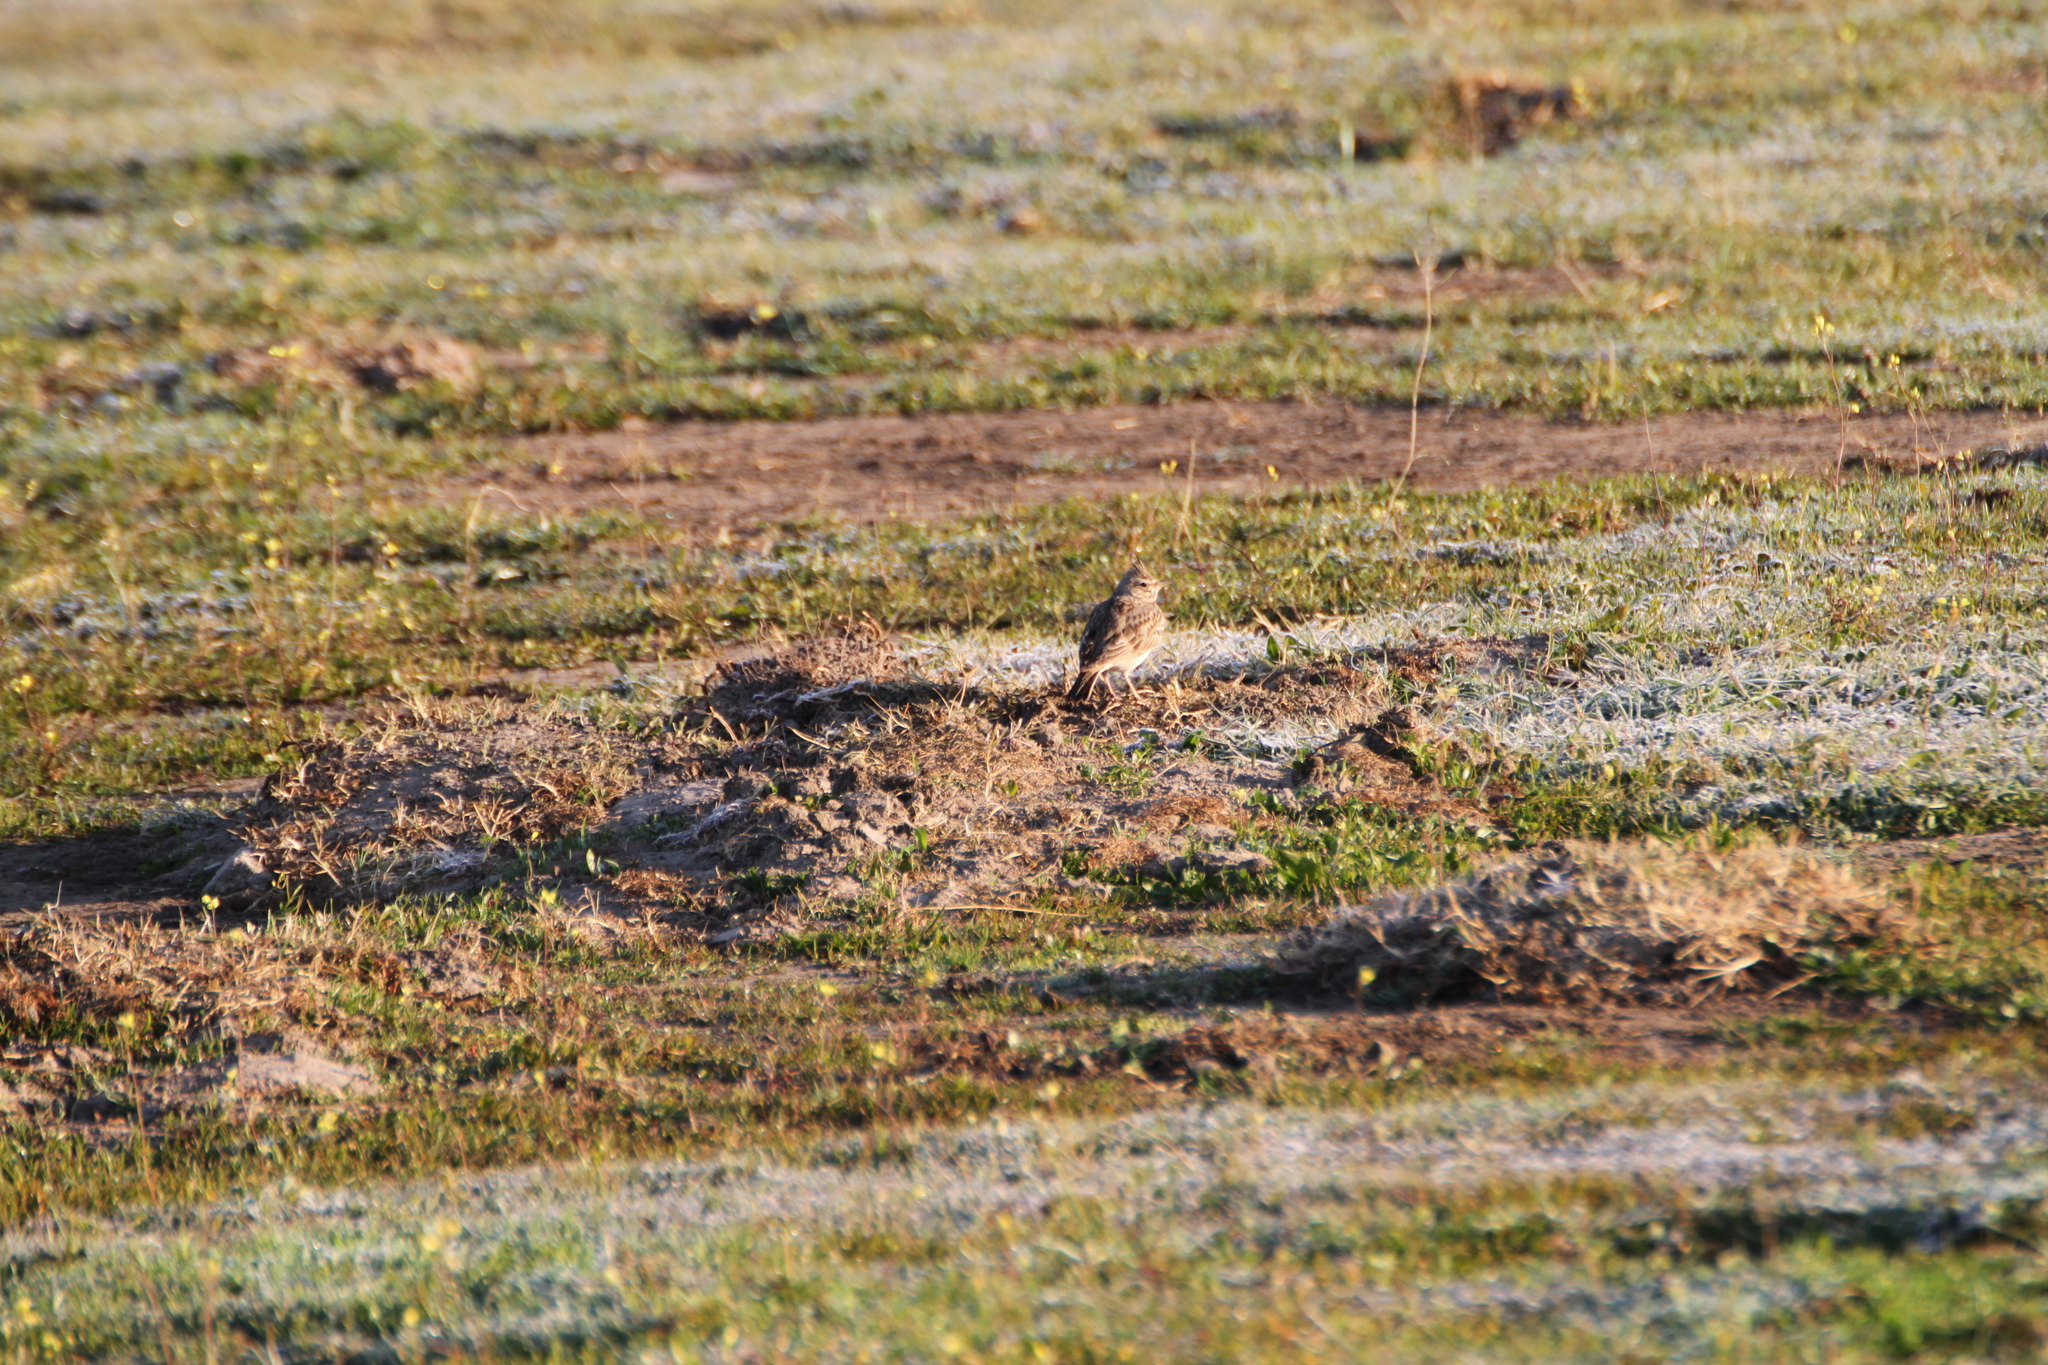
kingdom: Animalia
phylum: Chordata
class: Aves
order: Passeriformes
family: Alaudidae
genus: Galerida
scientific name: Galerida cristata
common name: Crested lark
